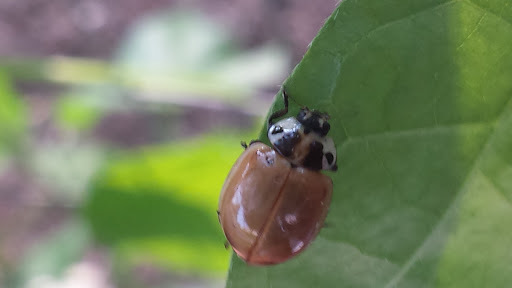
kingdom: Animalia
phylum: Arthropoda
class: Insecta
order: Coleoptera
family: Coccinellidae
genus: Myzia
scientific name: Myzia pullata
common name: Streaked lady beetle
